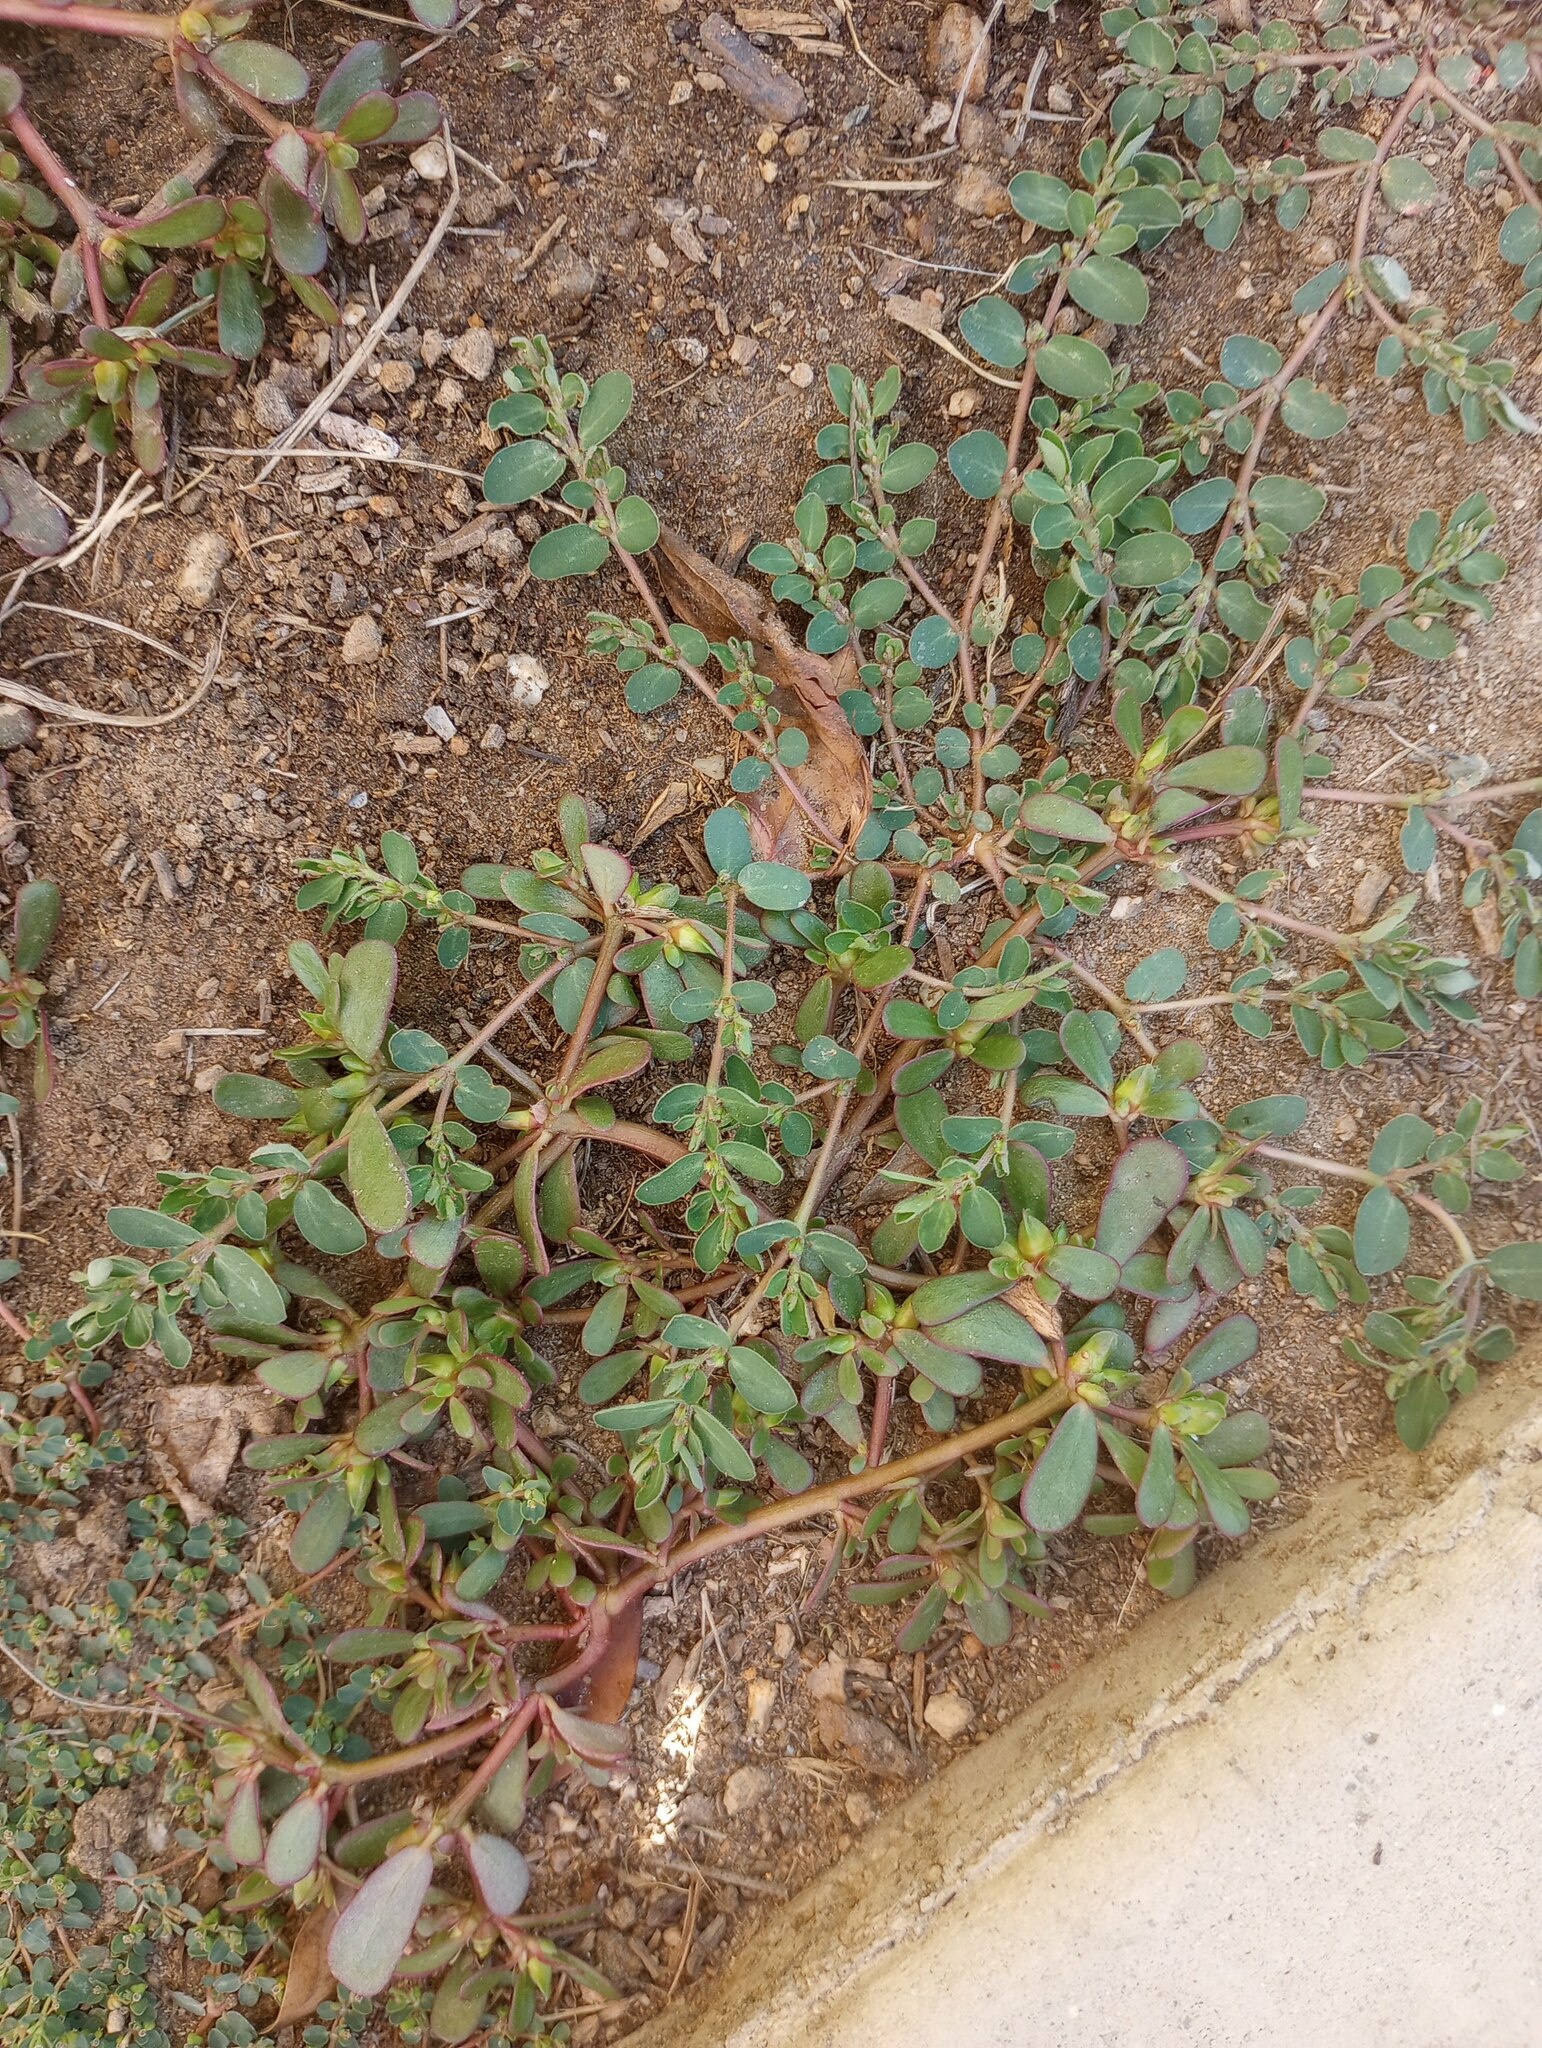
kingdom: Plantae
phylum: Tracheophyta
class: Magnoliopsida
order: Caryophyllales
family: Portulacaceae
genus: Portulaca
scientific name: Portulaca oleracea
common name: Common purslane
